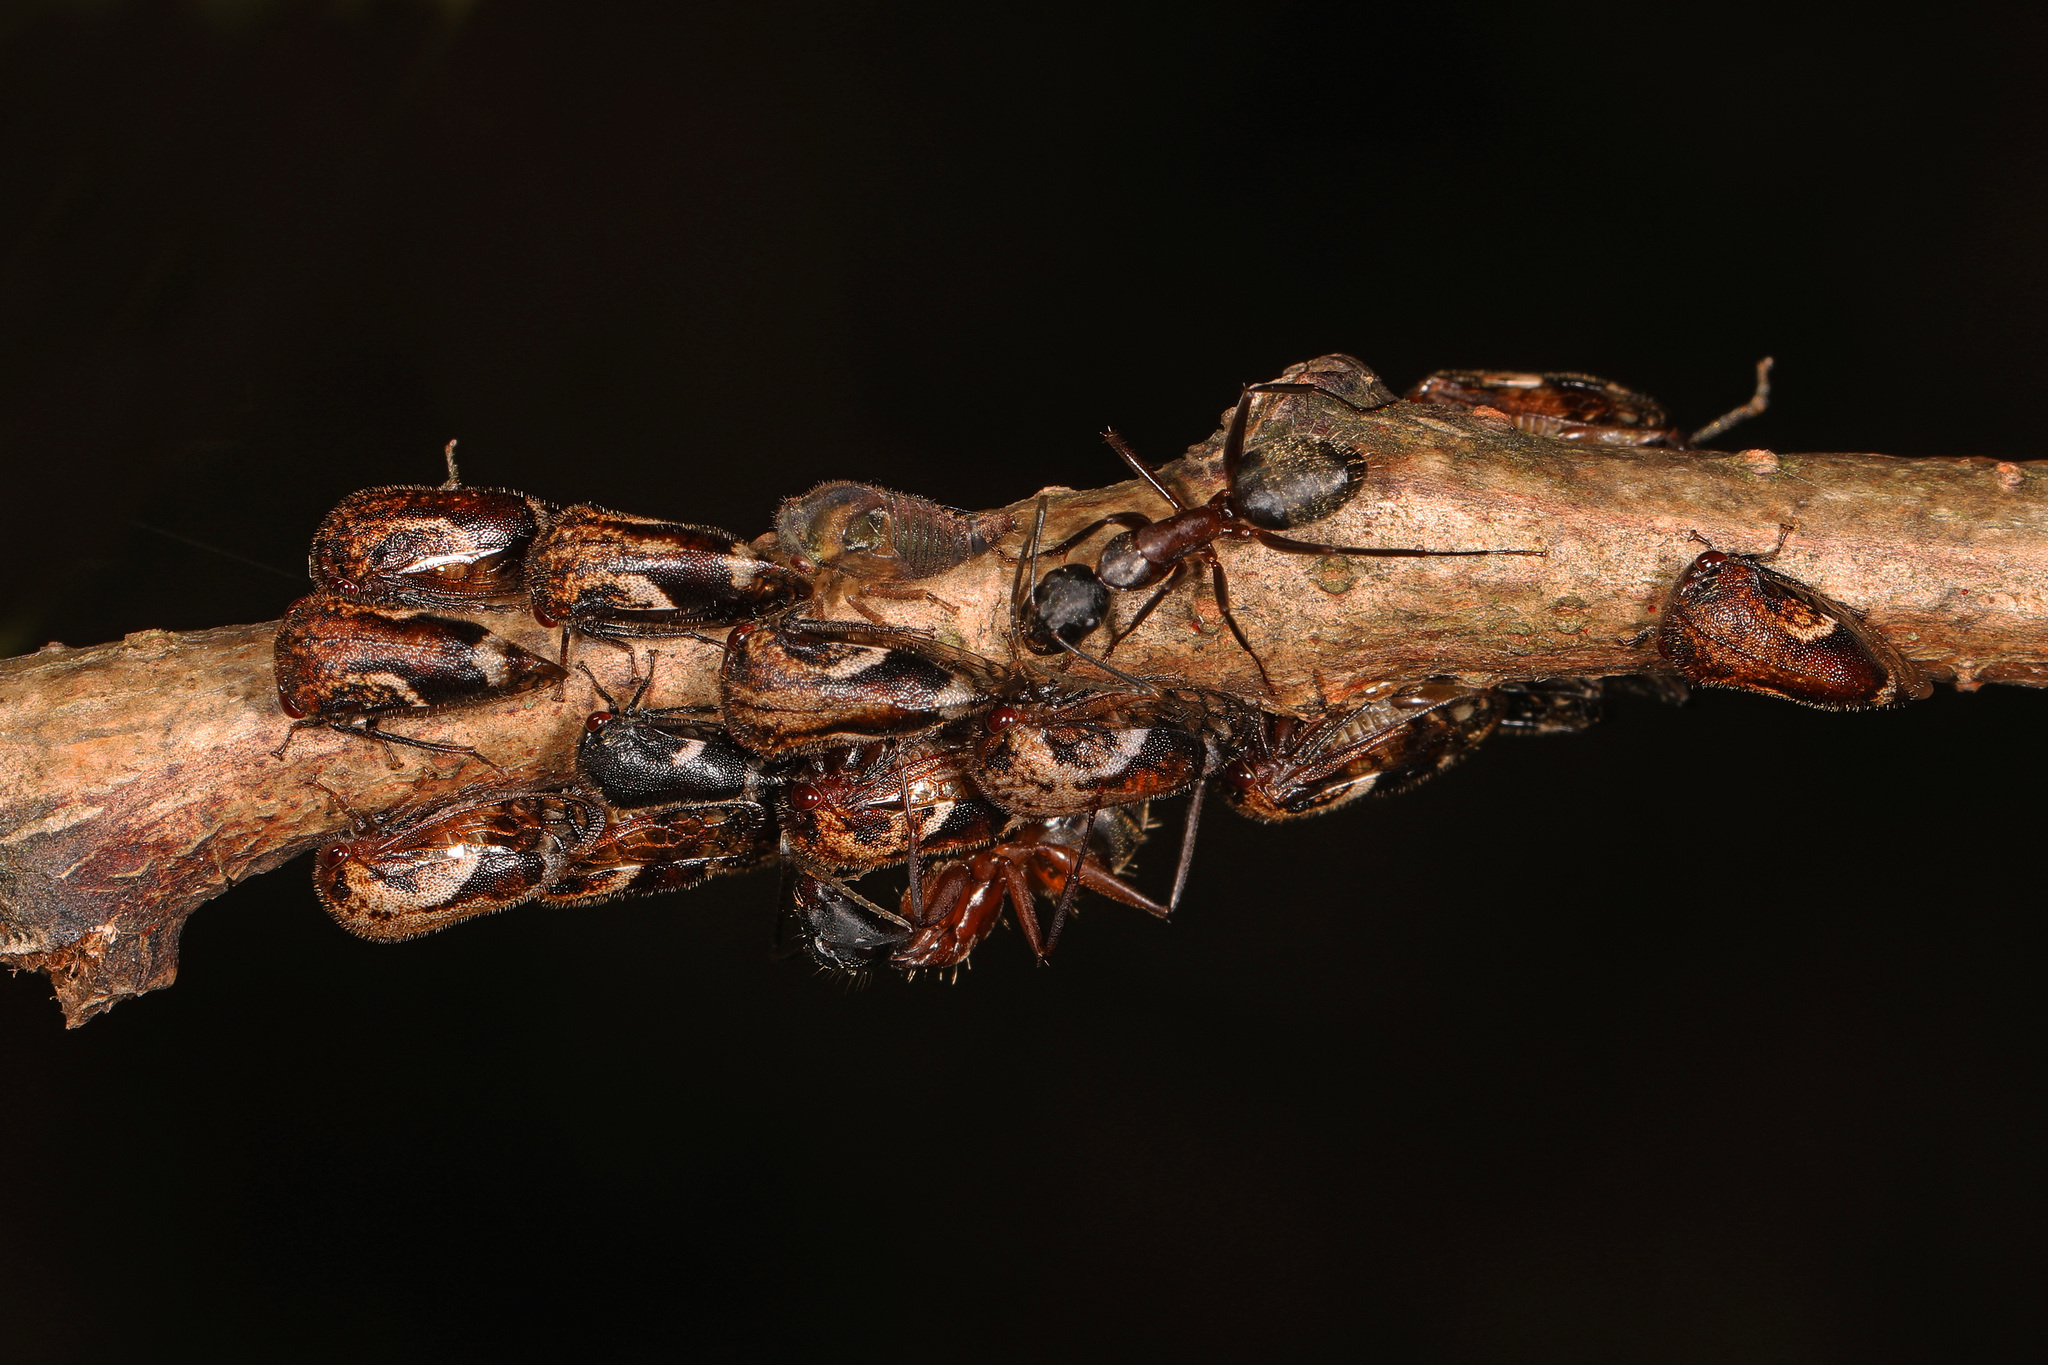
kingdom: Animalia
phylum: Arthropoda
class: Insecta
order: Hymenoptera
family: Formicidae
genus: Camponotus
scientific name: Camponotus chromaiodes
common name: Red carpenter ant
